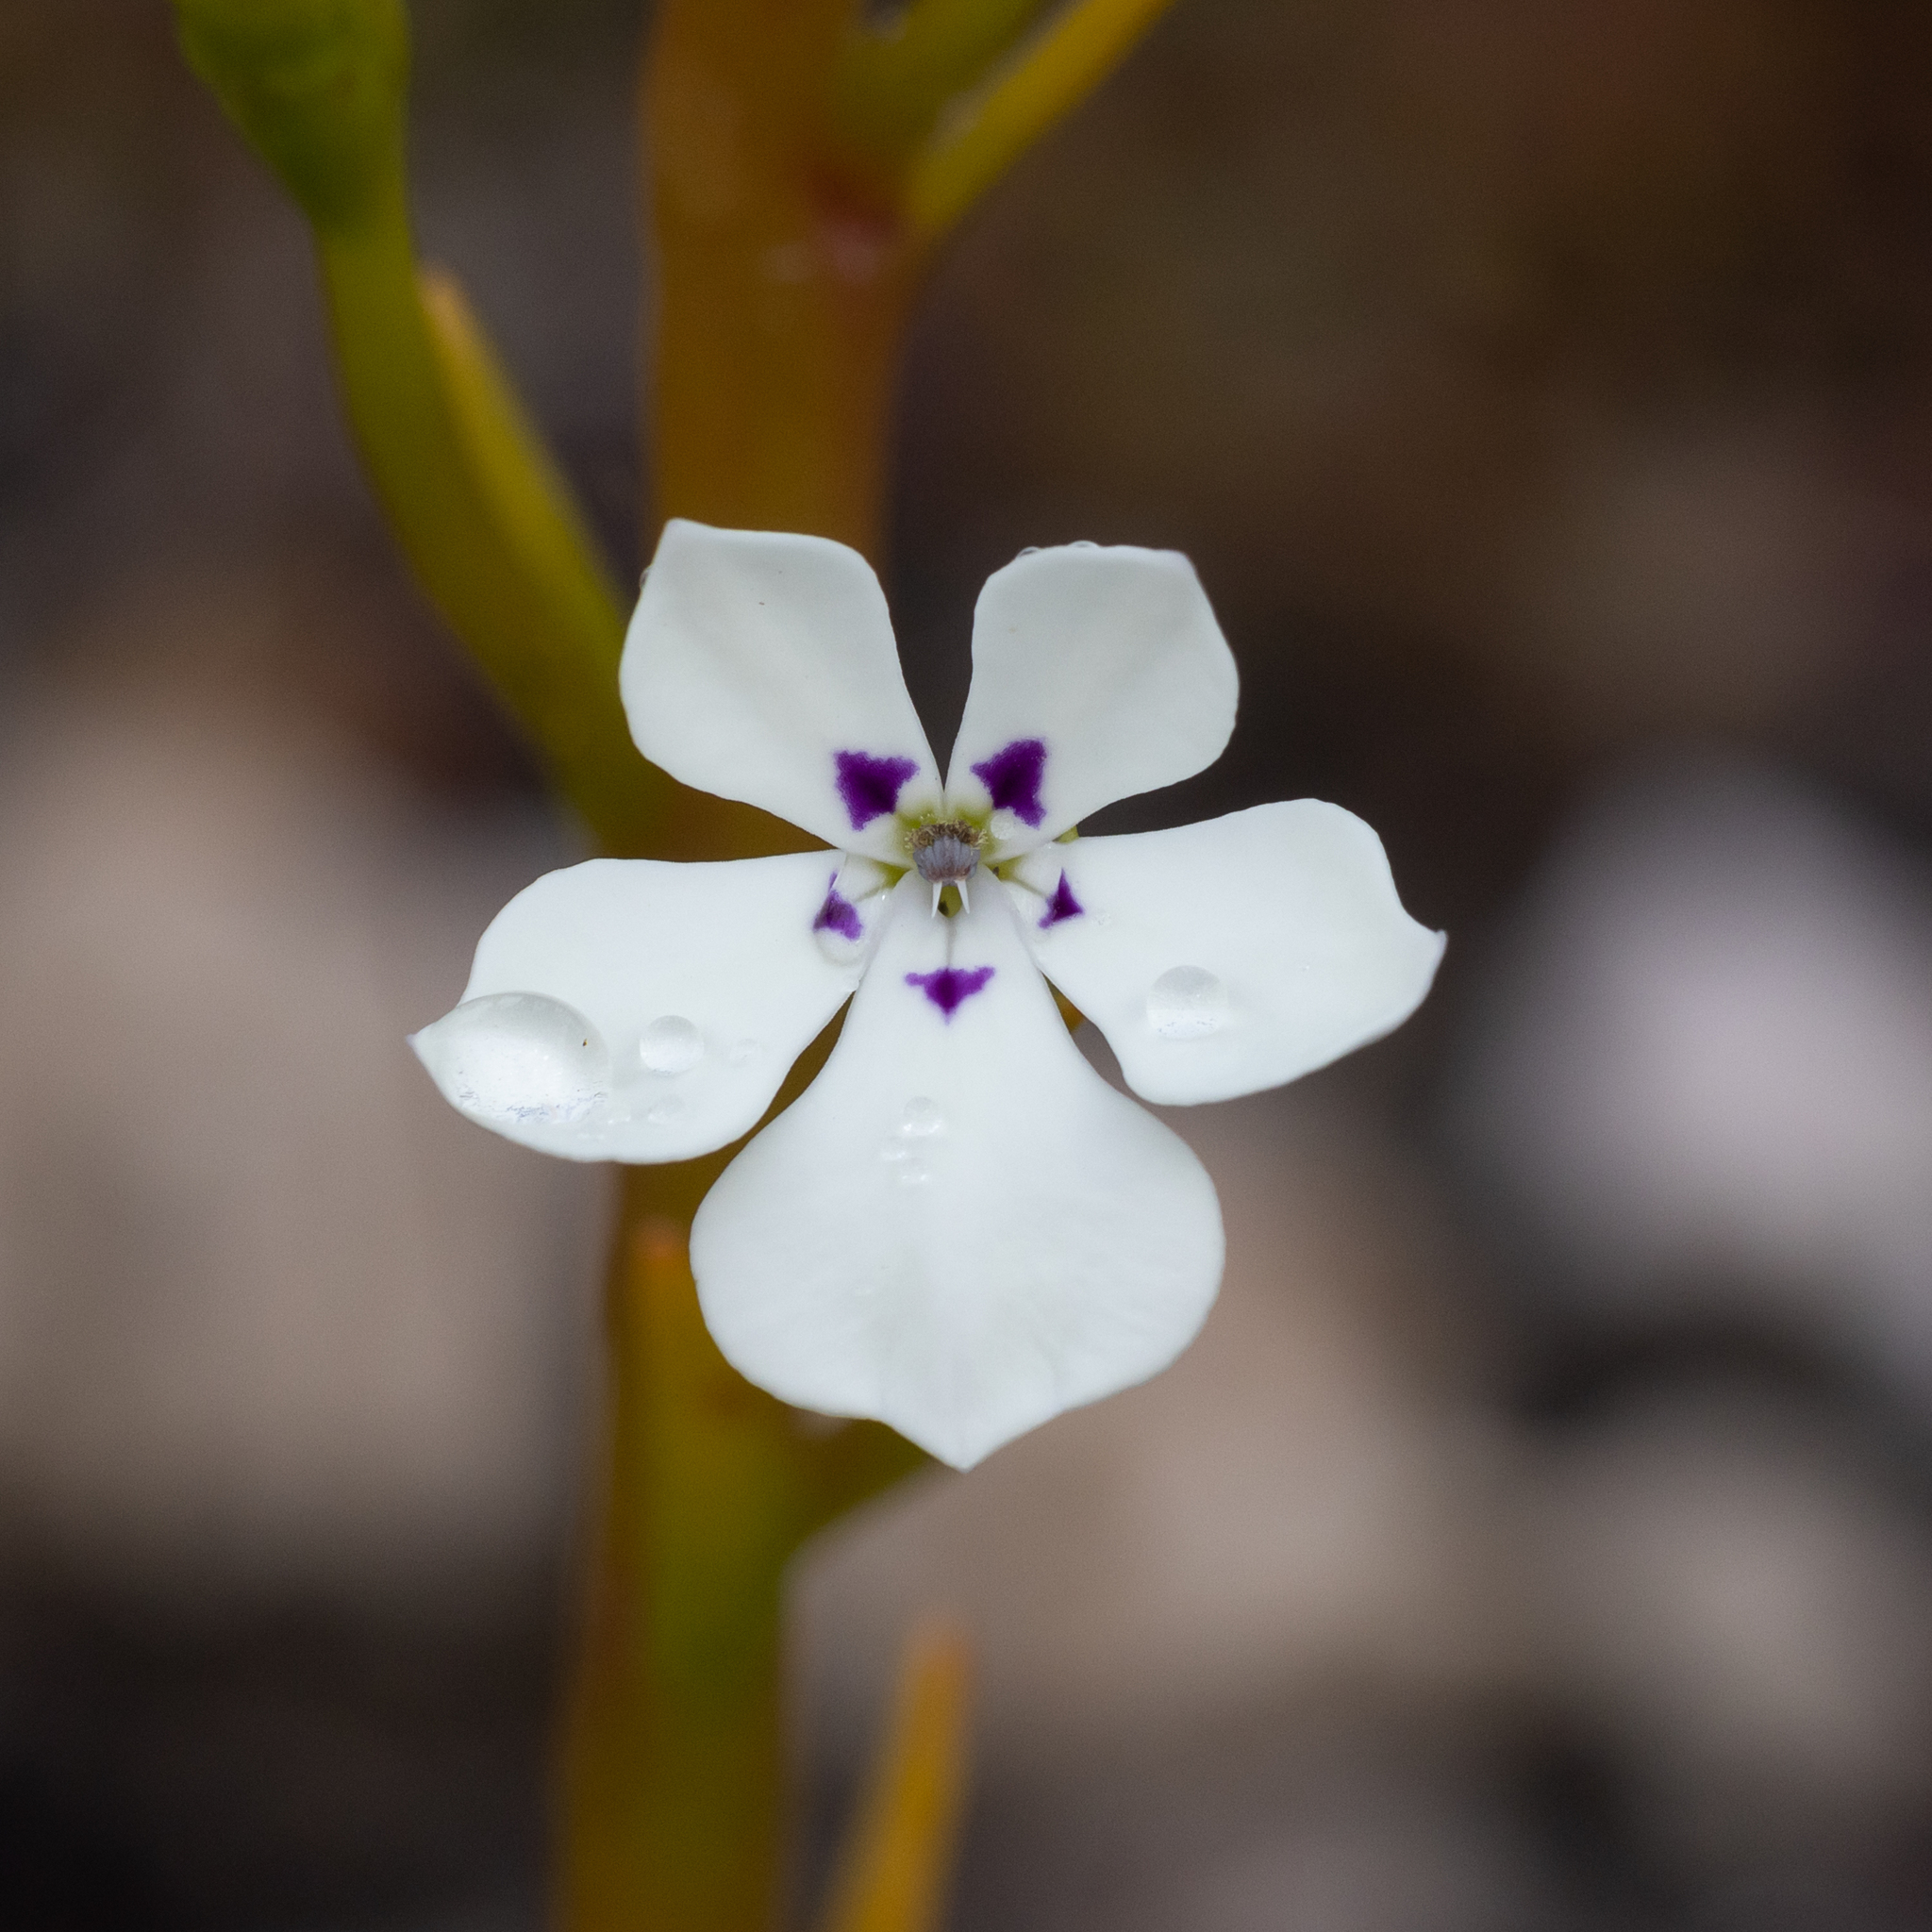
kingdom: Plantae
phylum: Tracheophyta
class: Magnoliopsida
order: Asterales
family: Campanulaceae
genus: Isotoma
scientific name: Isotoma hypocrateriformis
